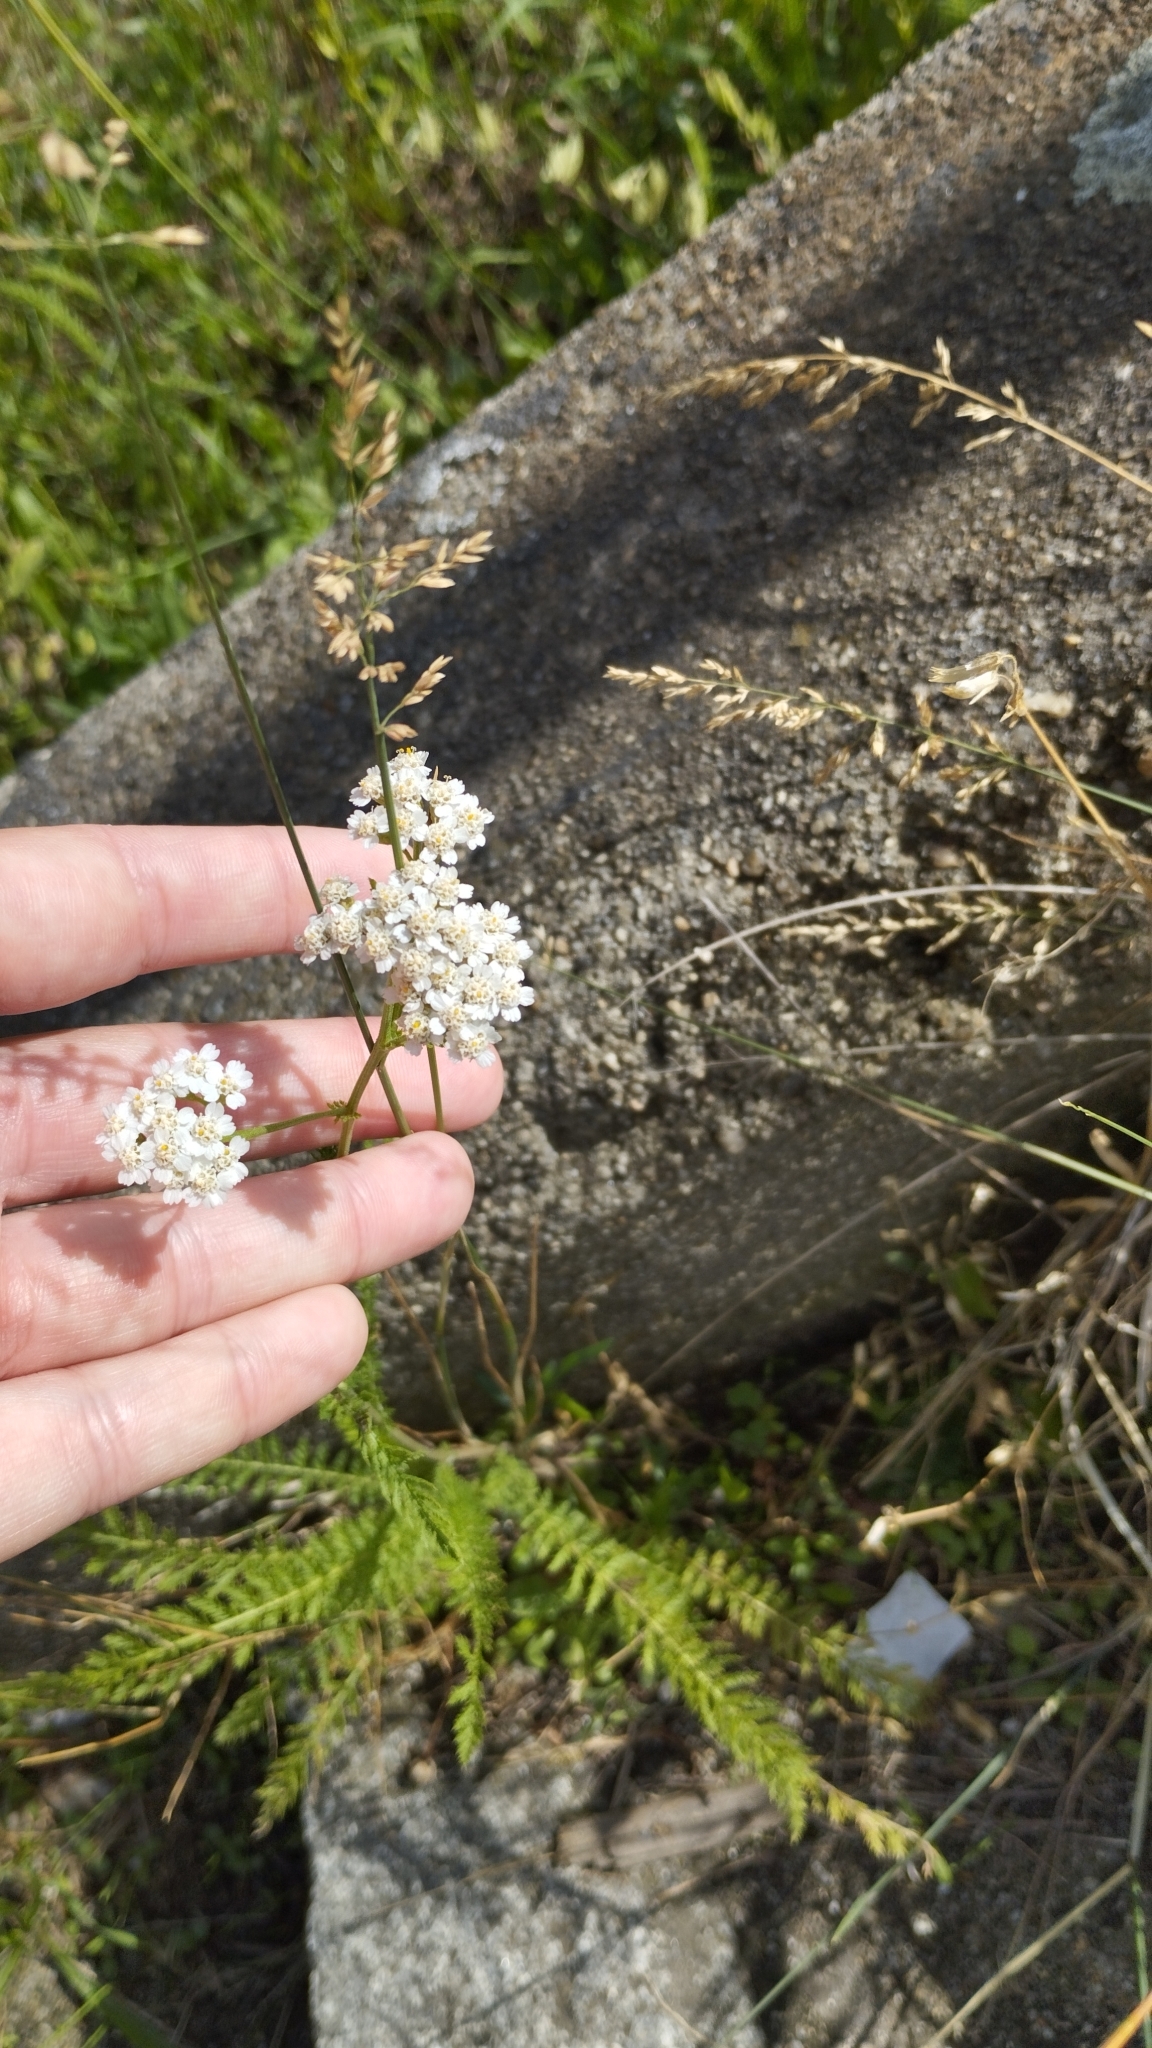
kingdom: Plantae
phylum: Tracheophyta
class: Magnoliopsida
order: Asterales
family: Asteraceae
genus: Achillea
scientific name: Achillea millefolium
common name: Yarrow
